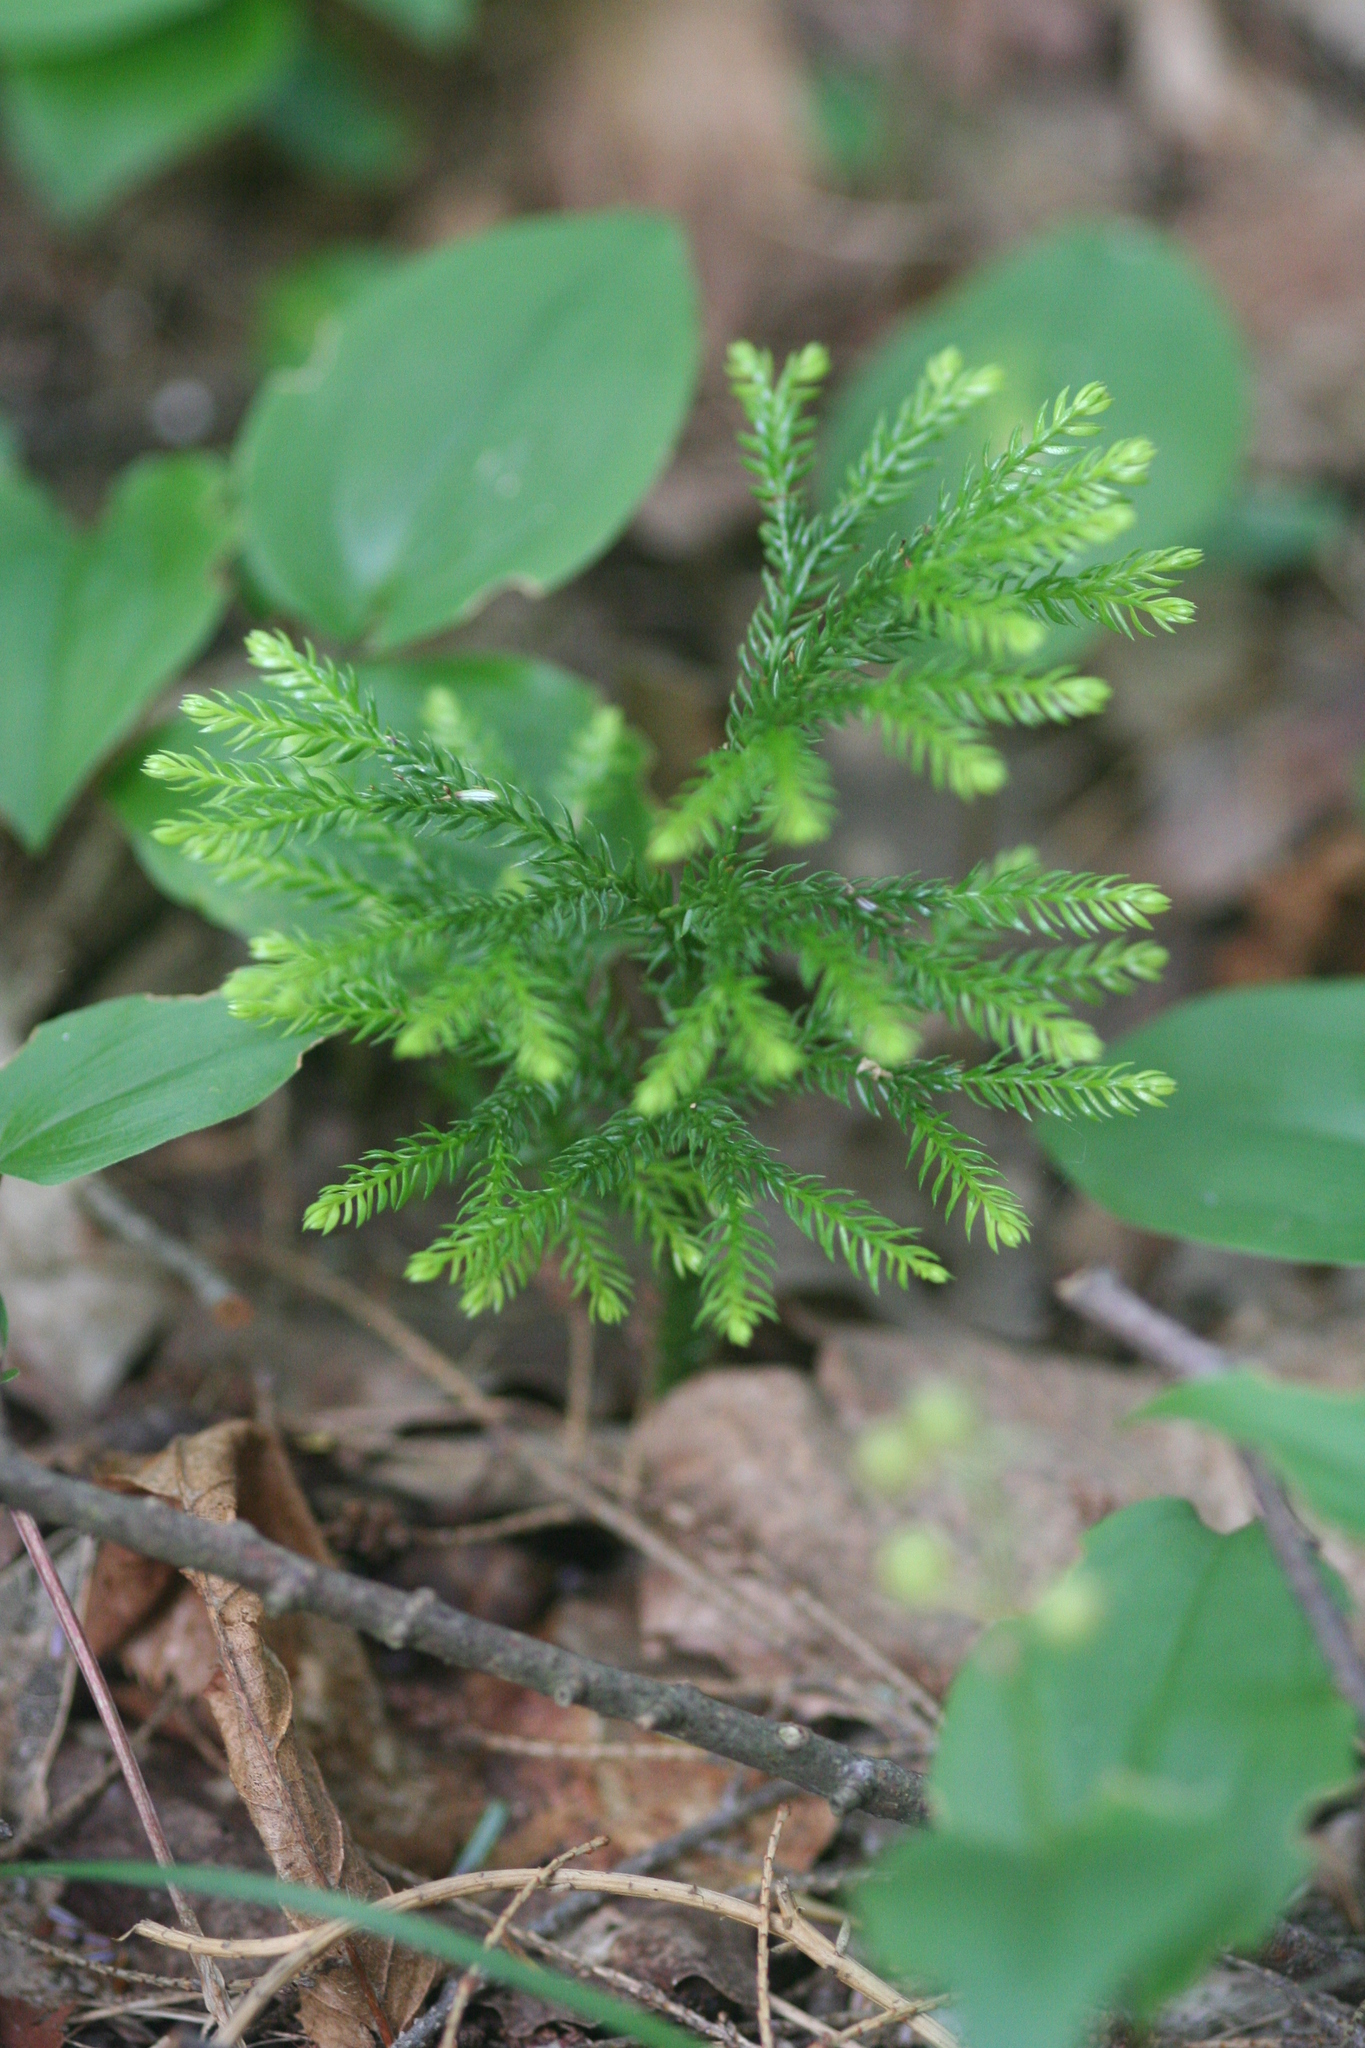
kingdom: Plantae
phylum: Tracheophyta
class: Lycopodiopsida
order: Lycopodiales
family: Lycopodiaceae
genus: Dendrolycopodium
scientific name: Dendrolycopodium obscurum
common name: Common ground-pine
